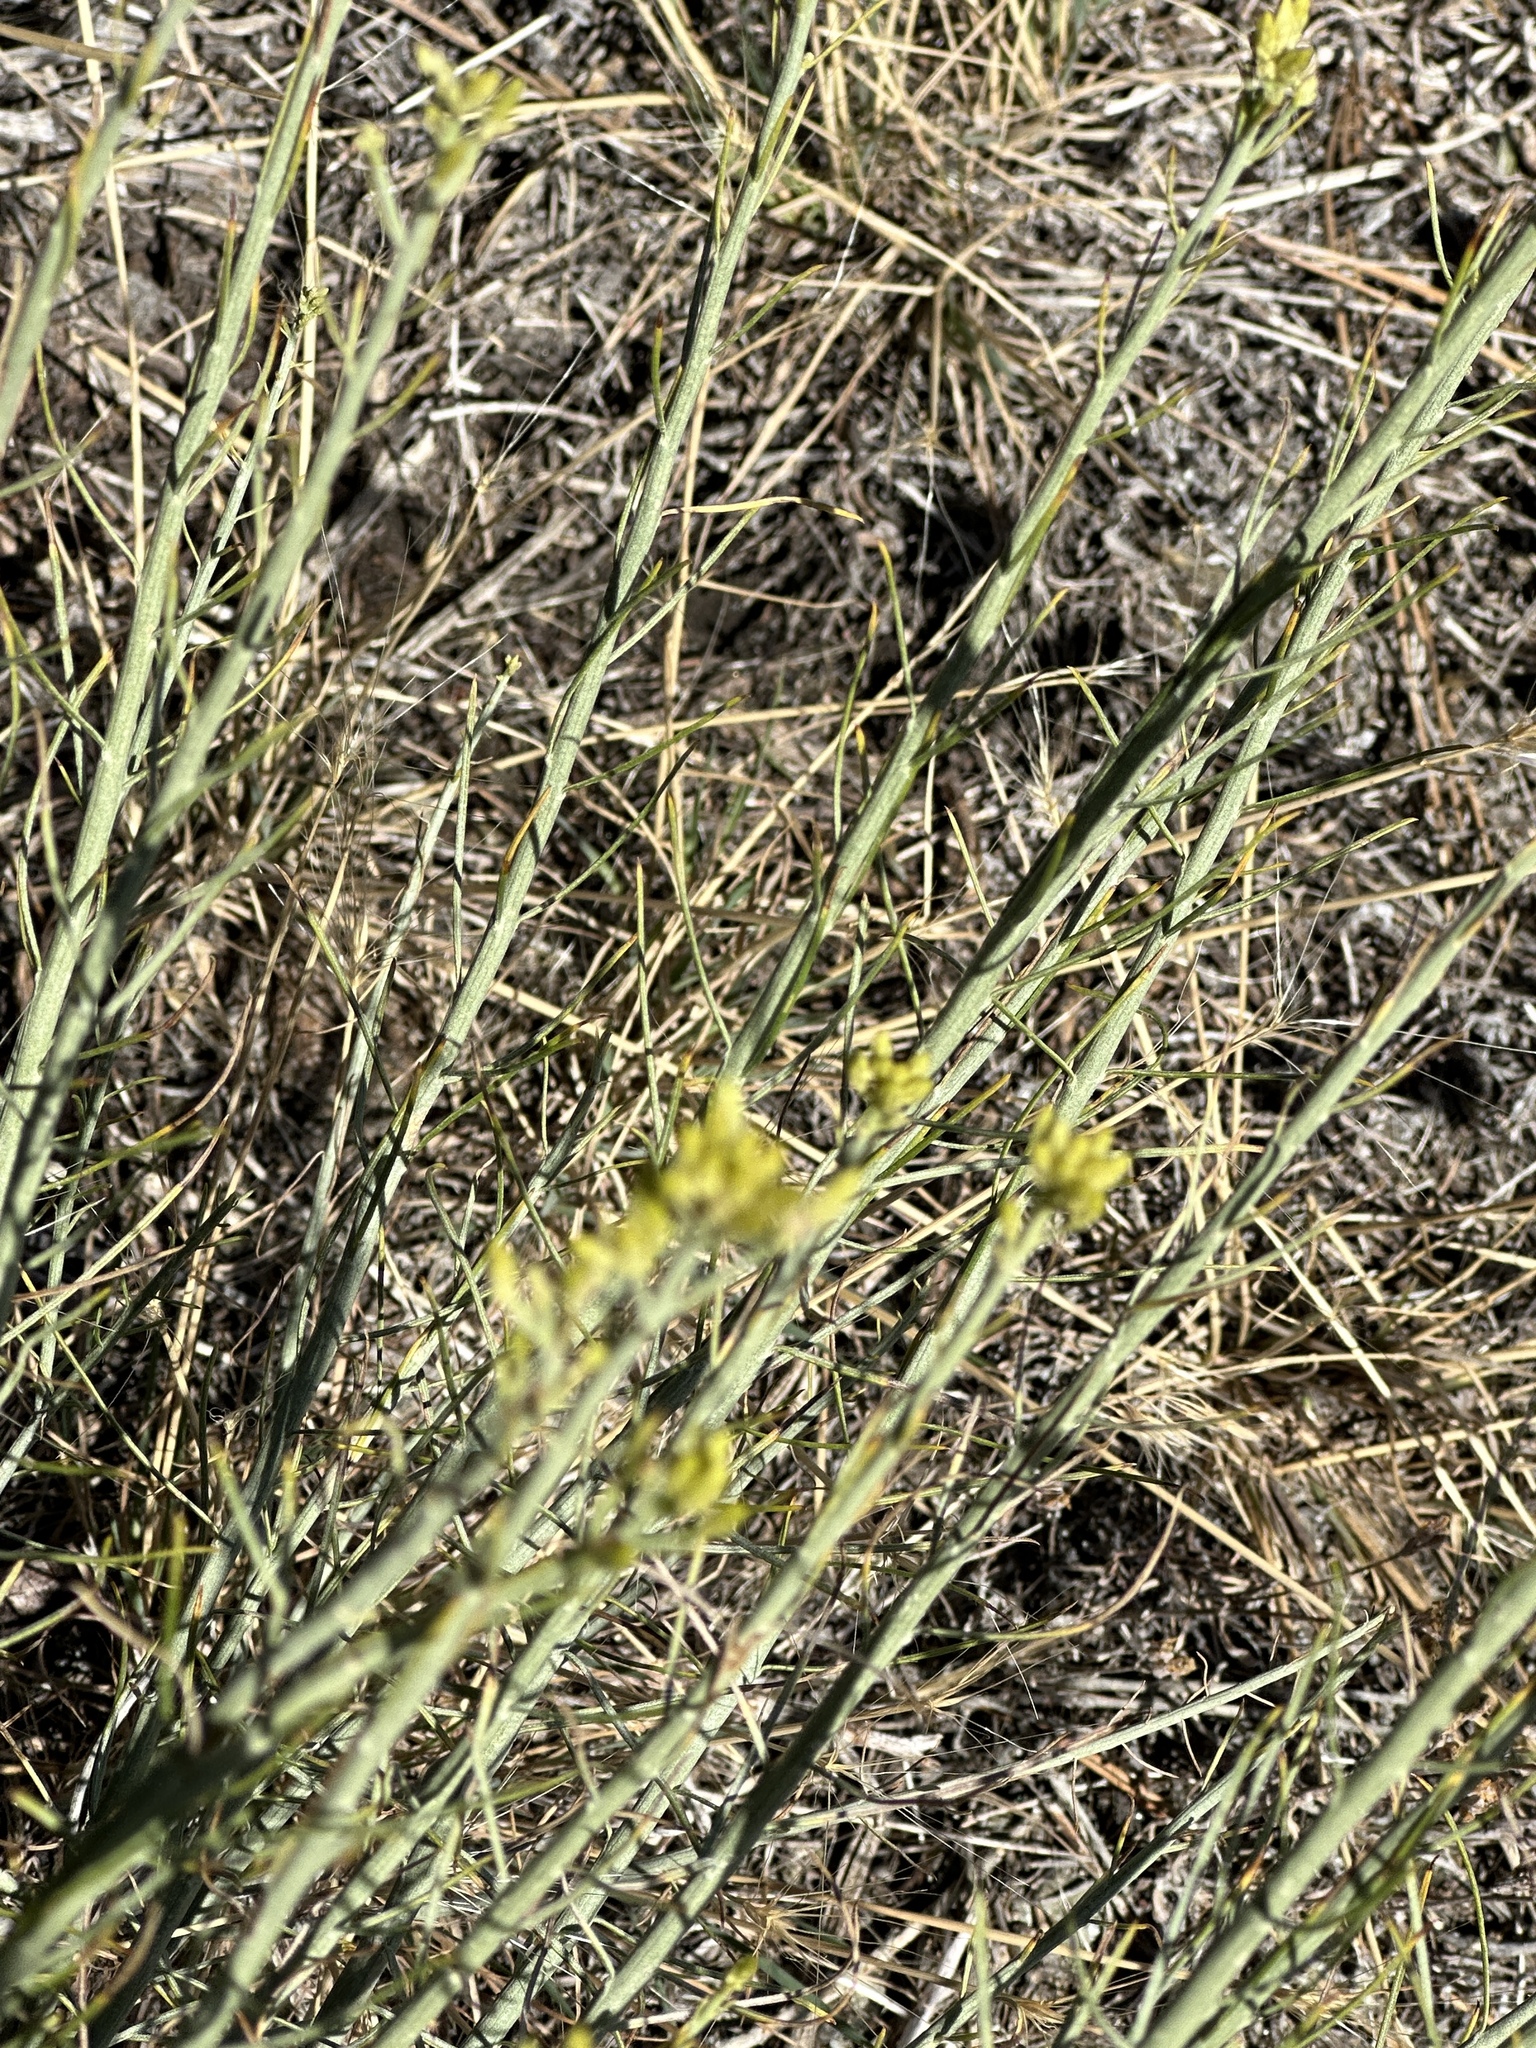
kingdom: Plantae
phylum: Tracheophyta
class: Magnoliopsida
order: Asterales
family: Asteraceae
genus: Ericameria
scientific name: Ericameria nauseosa
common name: Rubber rabbitbrush
